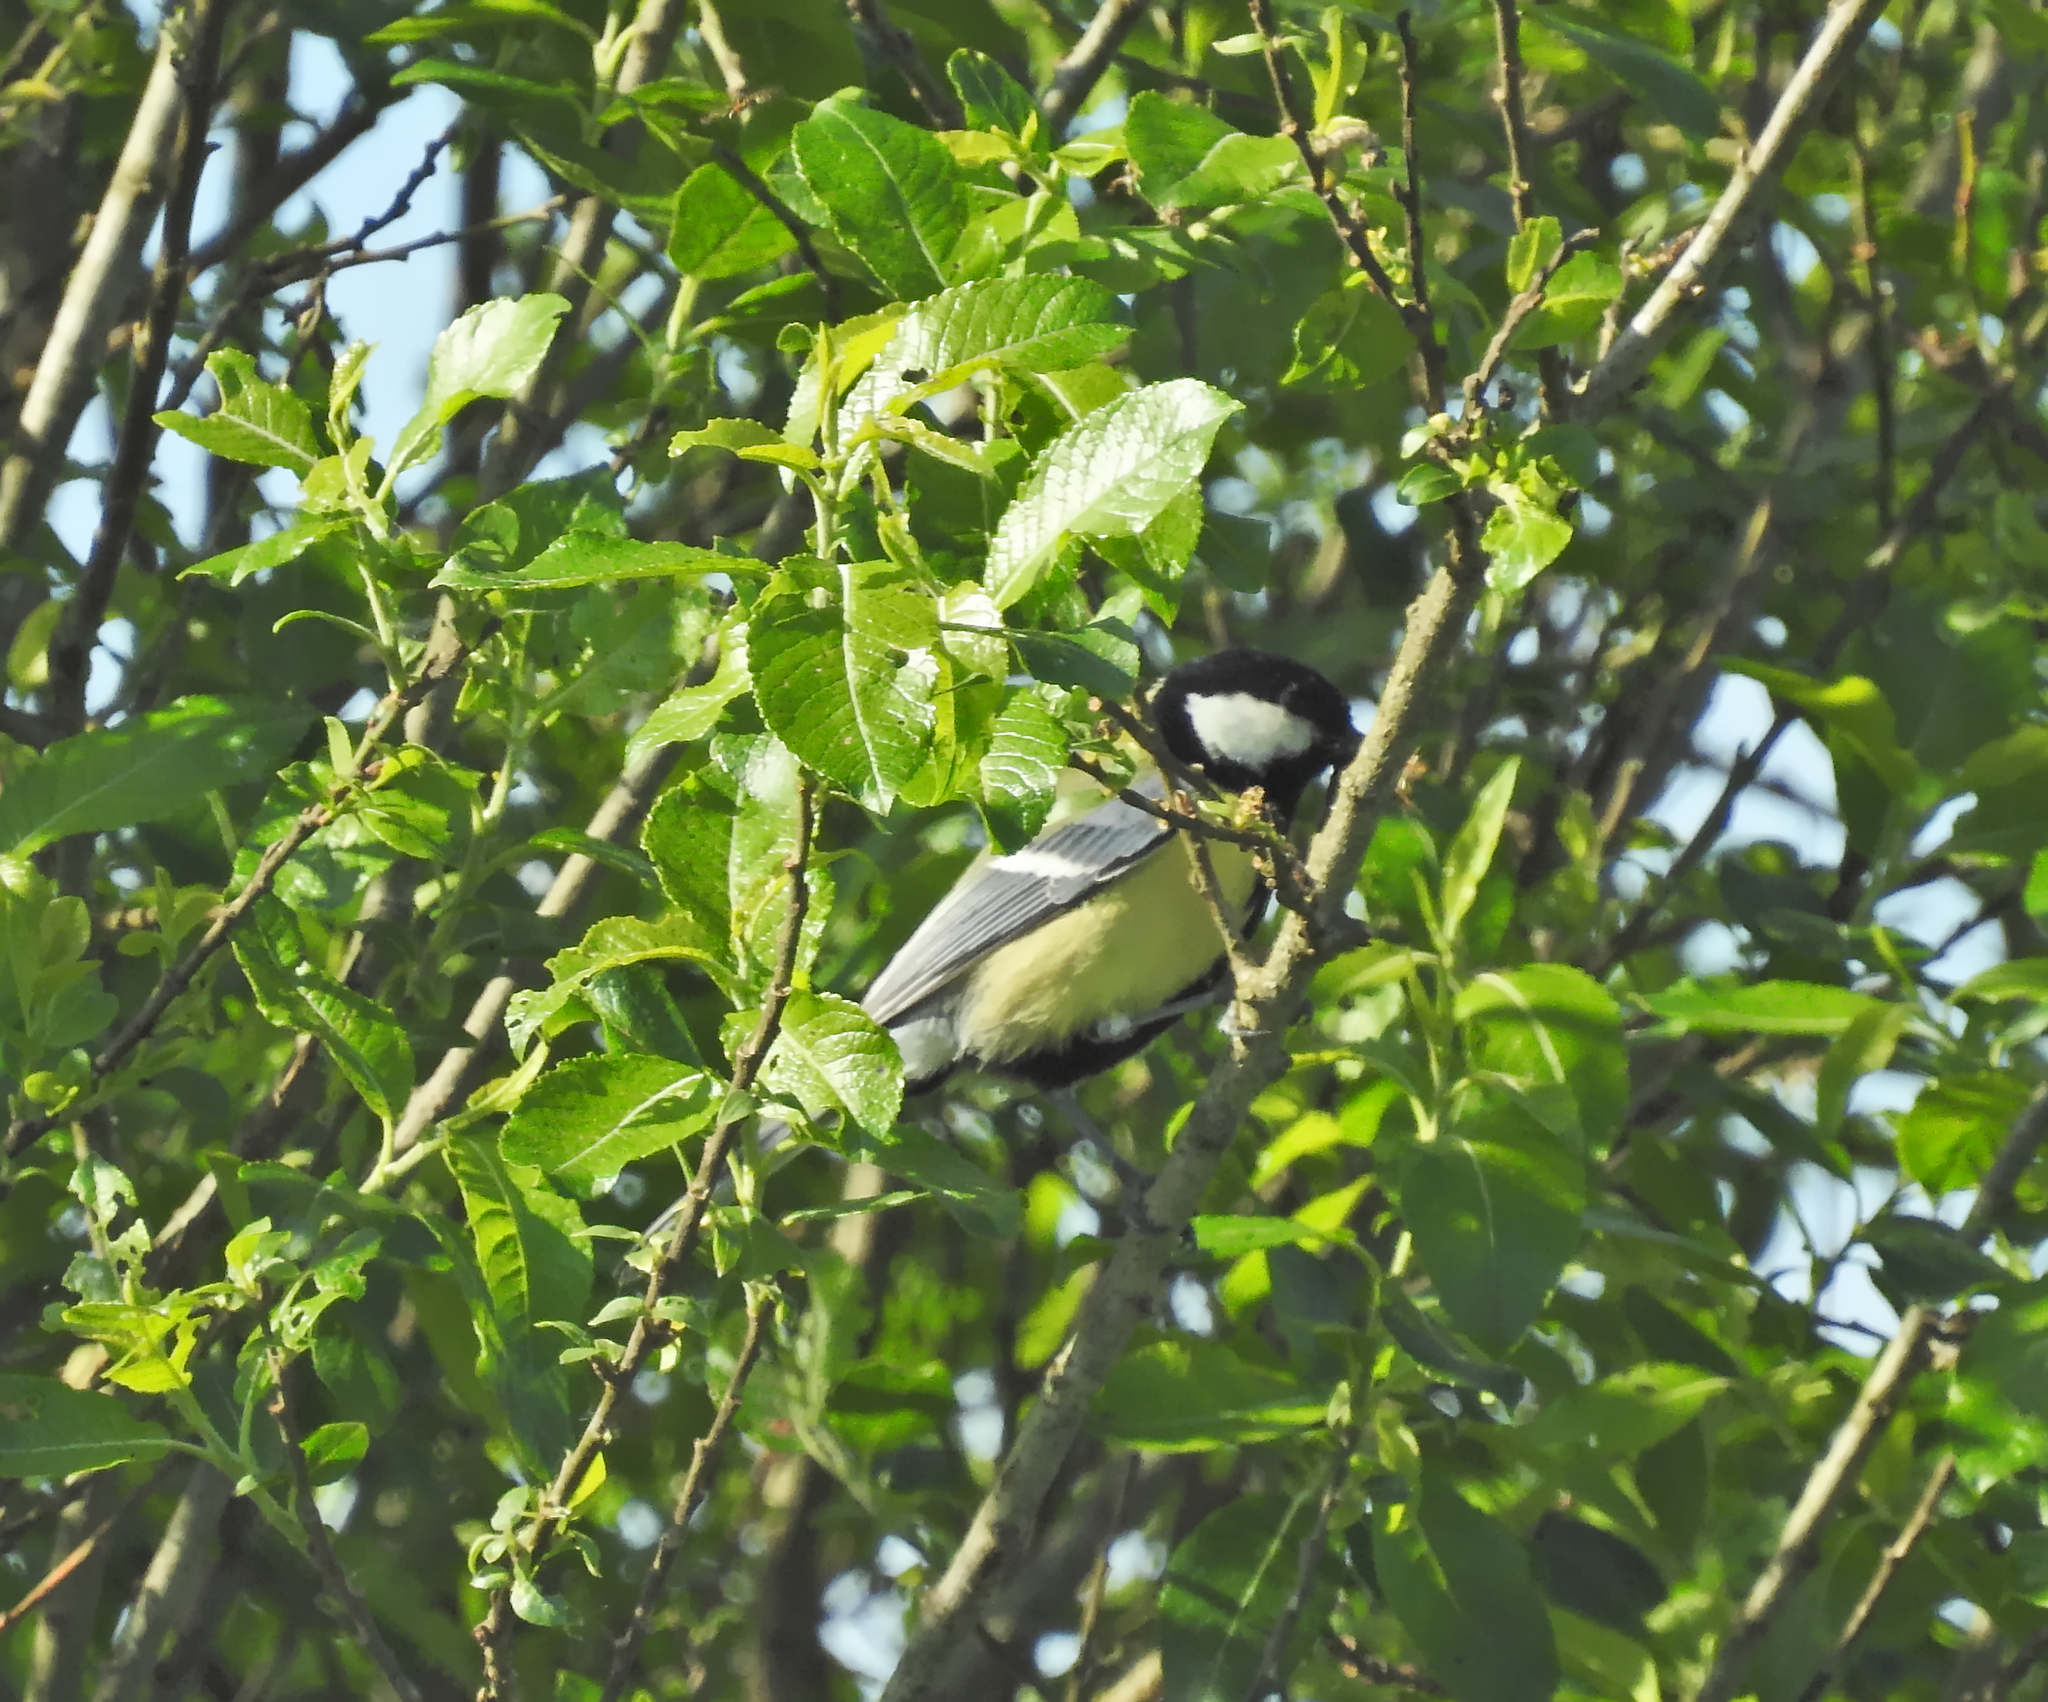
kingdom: Animalia
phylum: Chordata
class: Aves
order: Passeriformes
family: Paridae
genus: Parus
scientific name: Parus major
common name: Great tit
